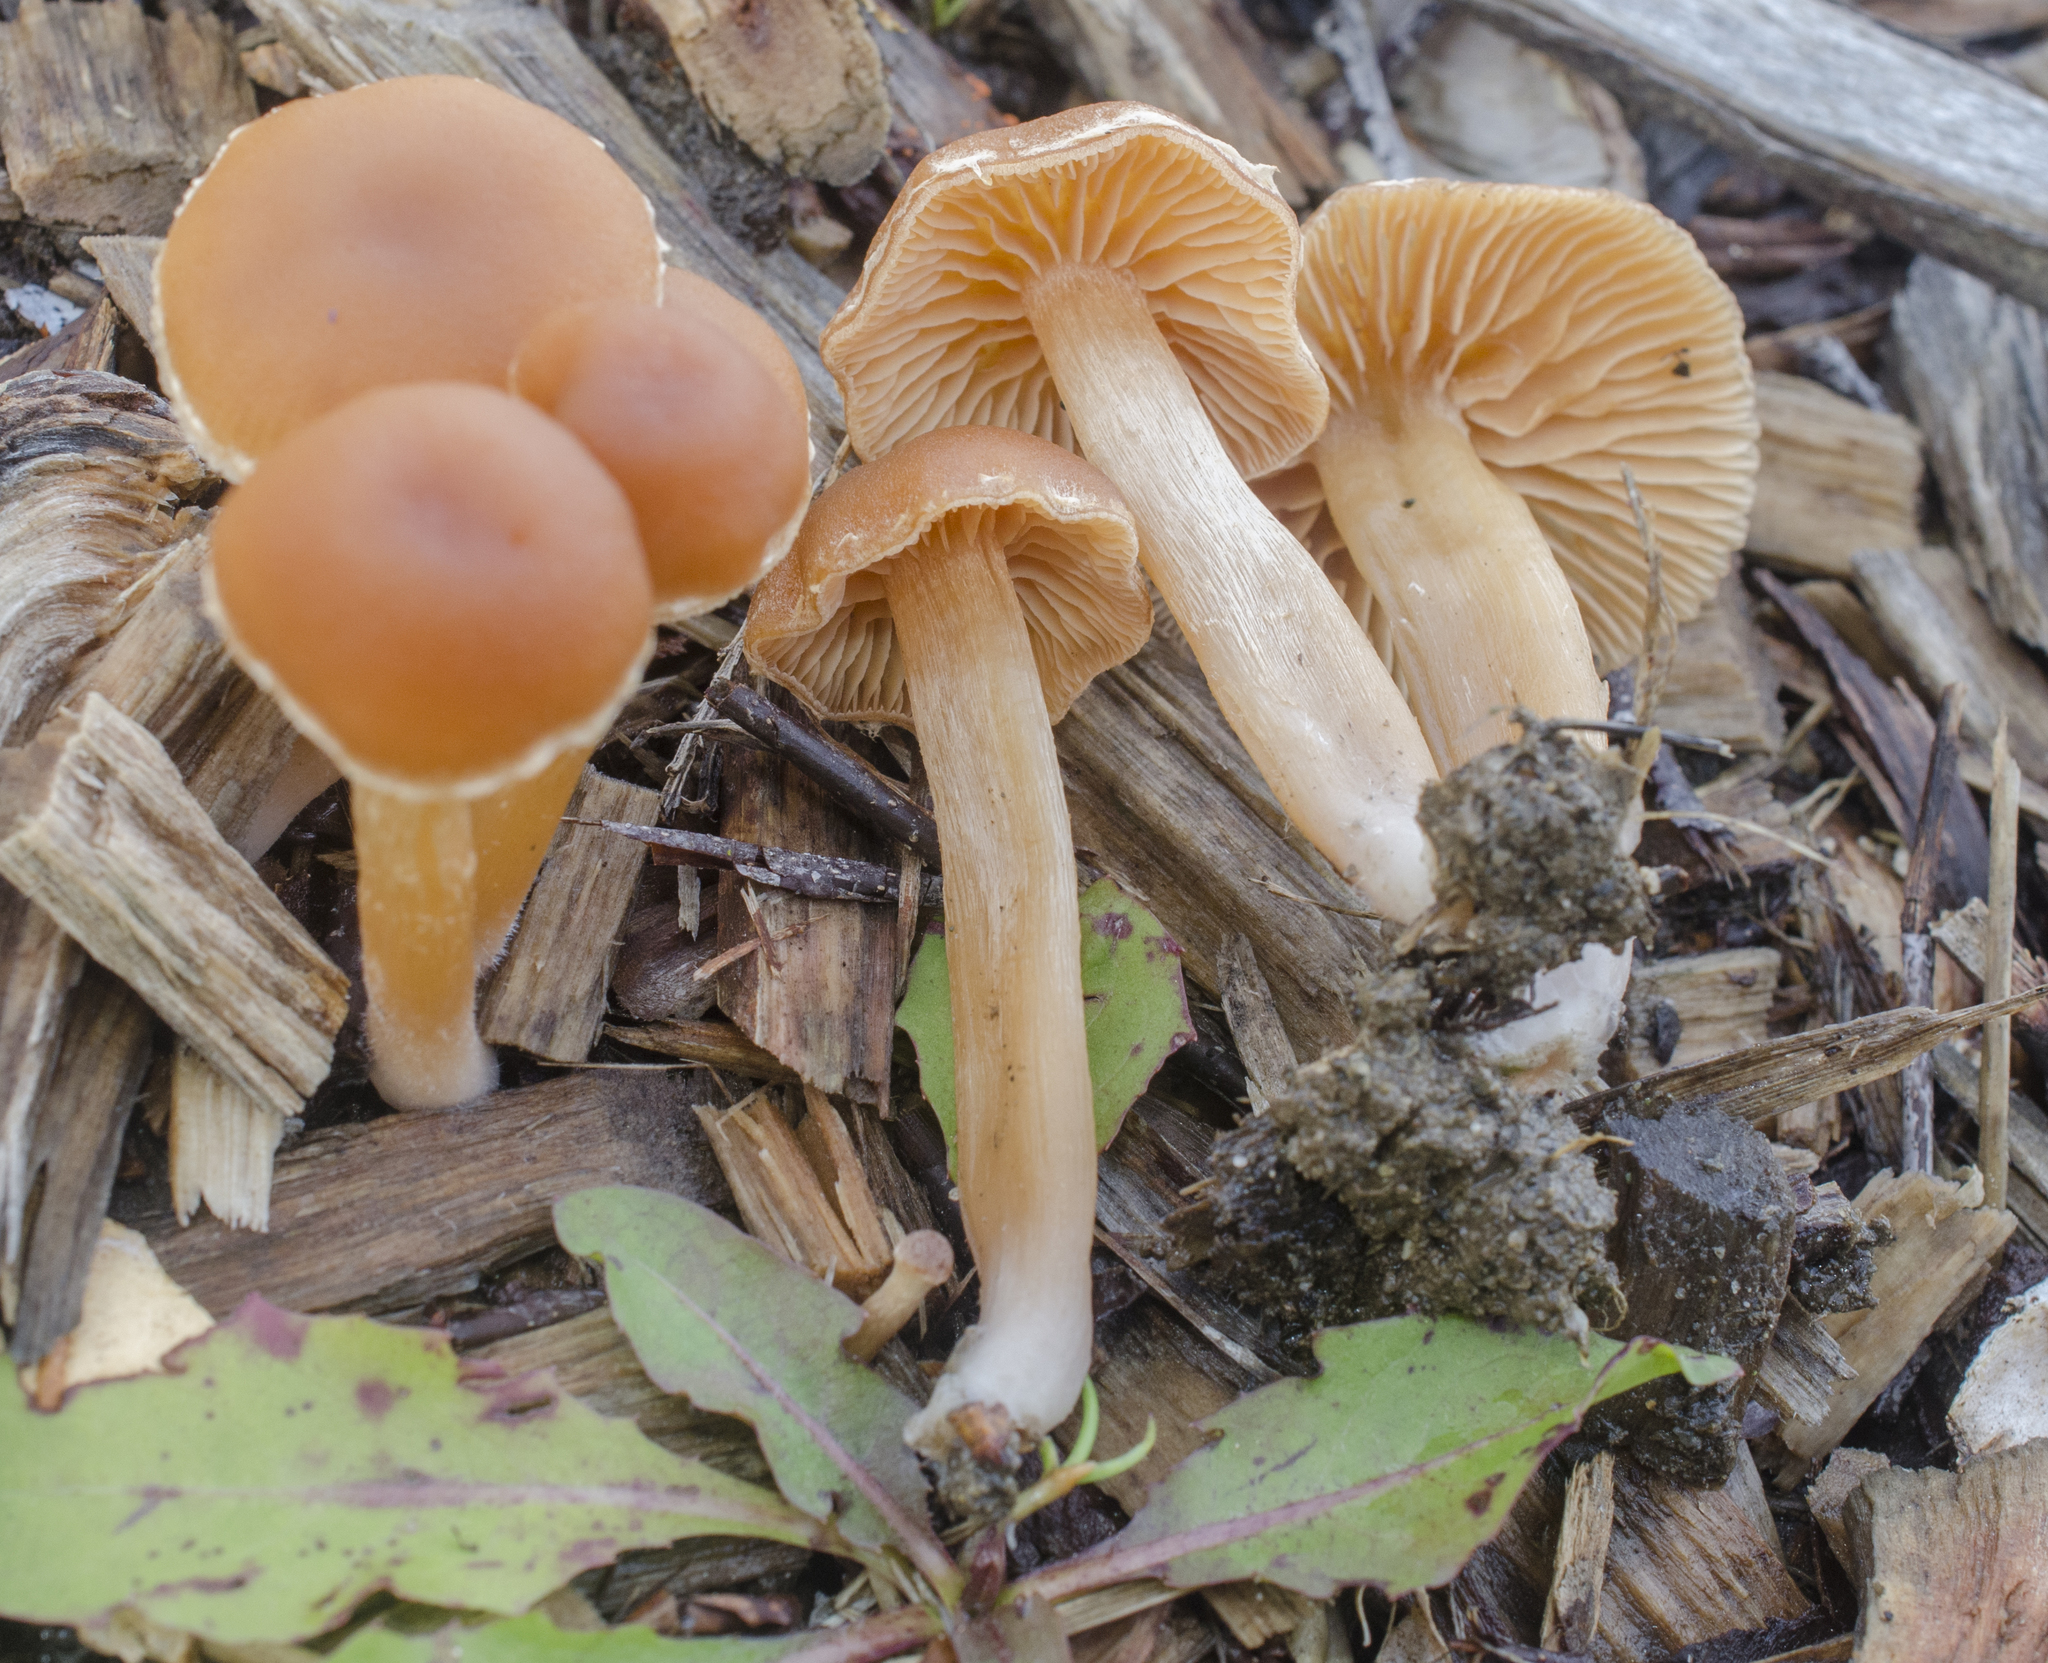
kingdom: Fungi
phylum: Basidiomycota
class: Agaricomycetes
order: Agaricales
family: Tubariaceae
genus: Tubaria
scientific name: Tubaria furfuracea
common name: Scurfy twiglet
